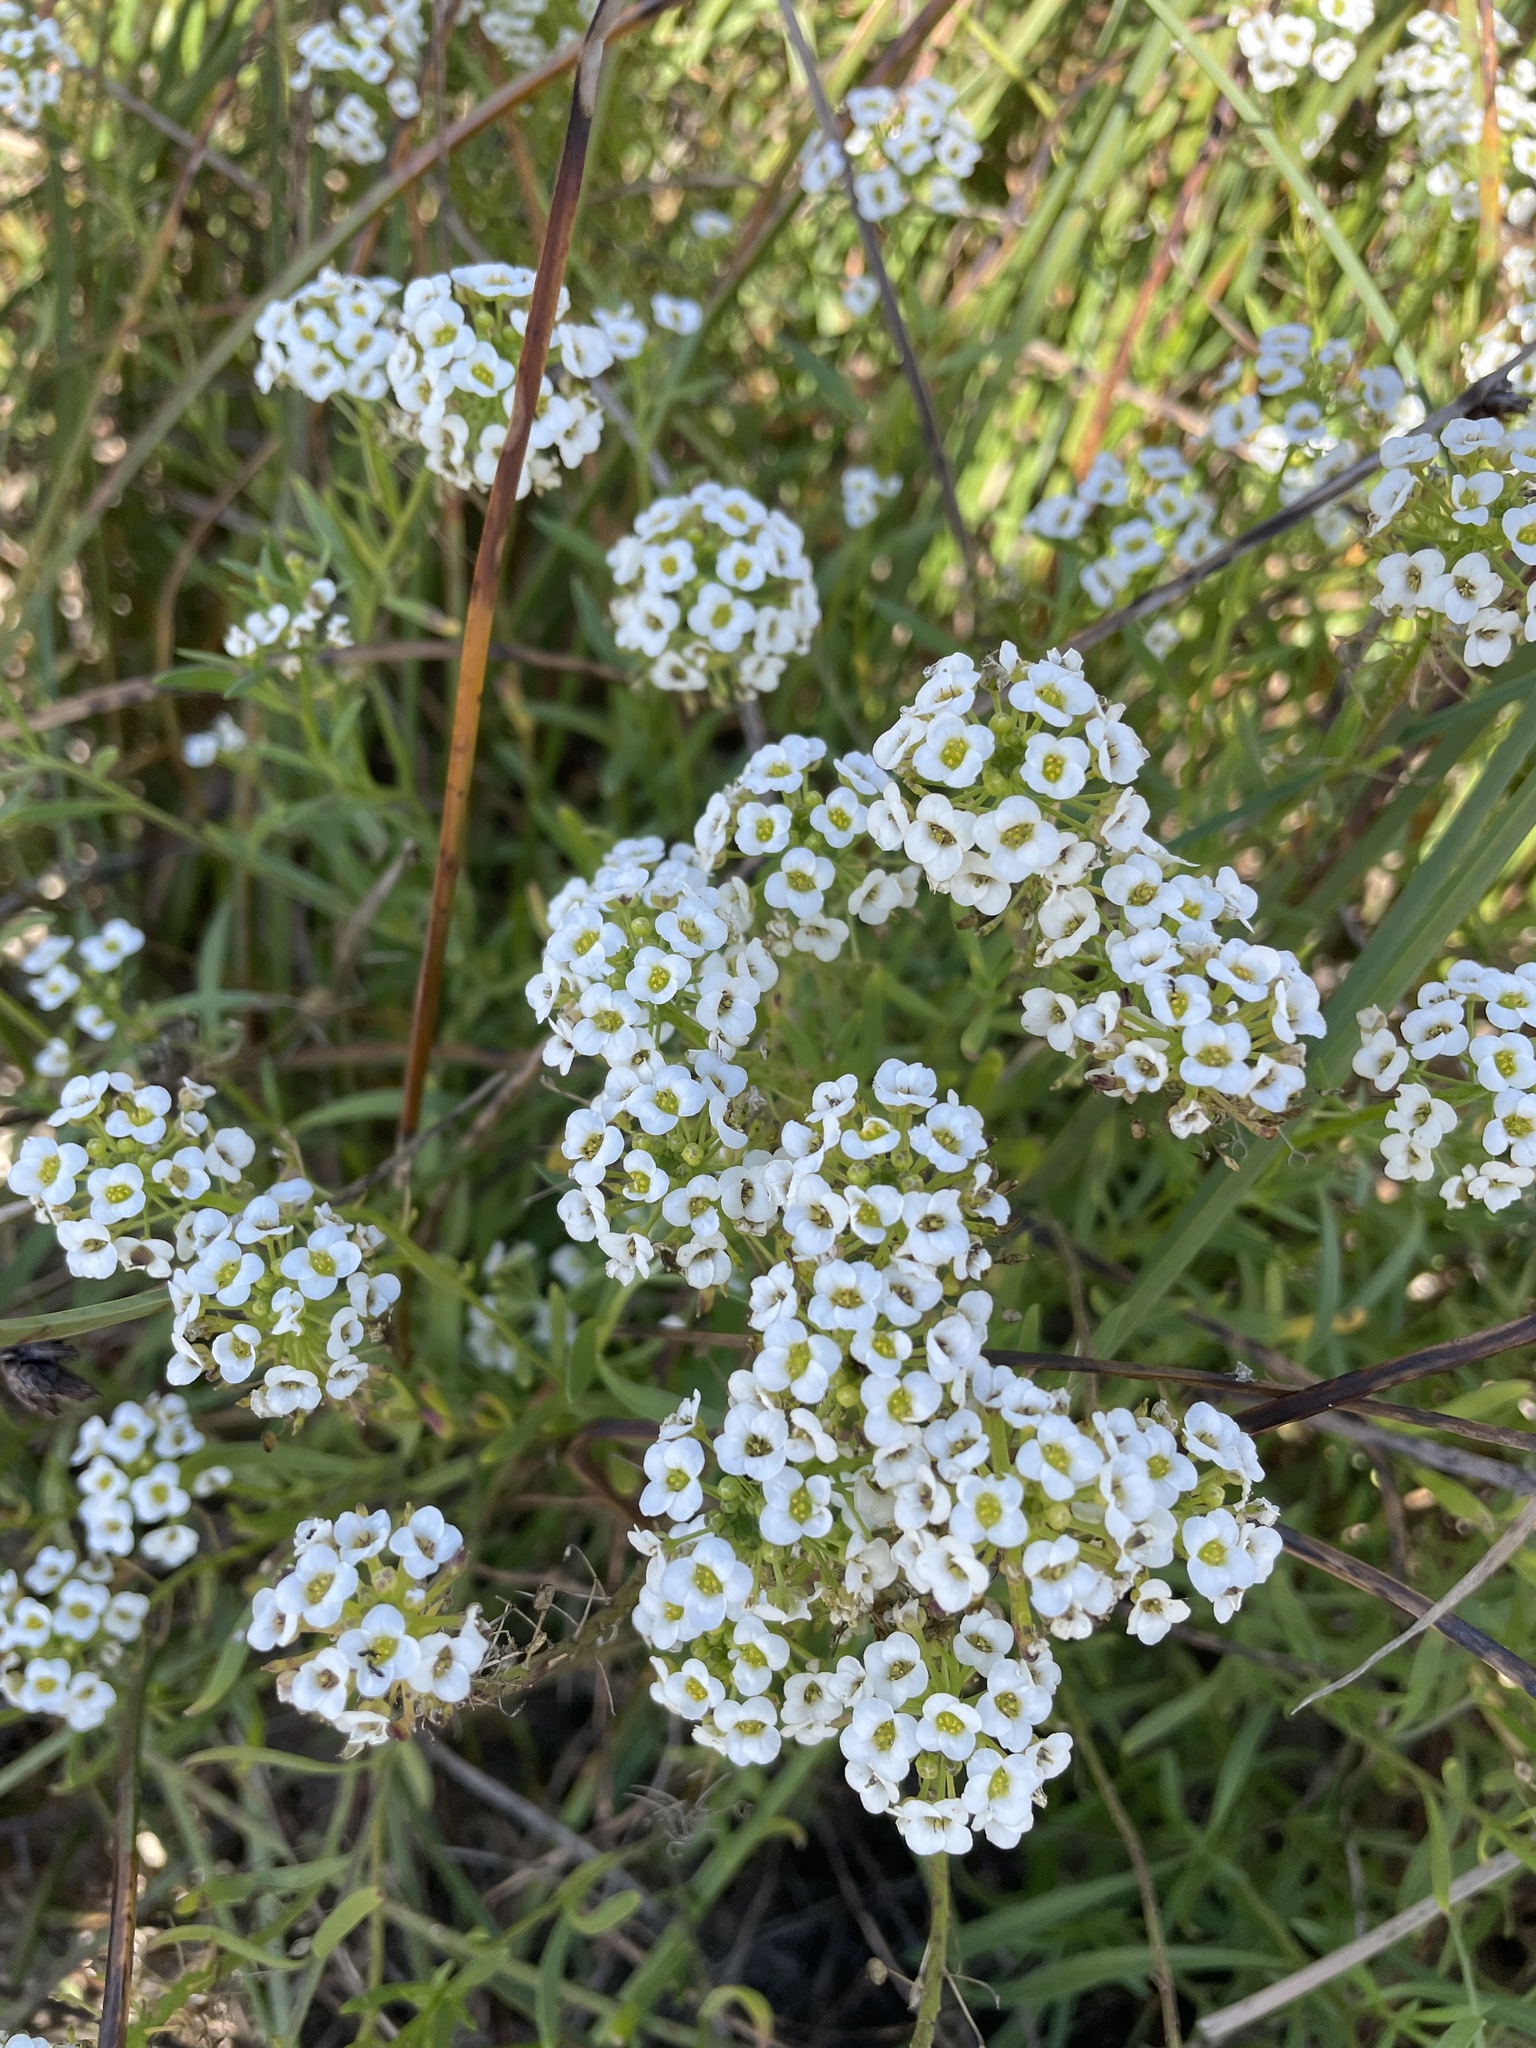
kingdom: Plantae
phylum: Tracheophyta
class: Magnoliopsida
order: Brassicales
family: Brassicaceae
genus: Lobularia
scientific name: Lobularia maritima
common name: Sweet alison
